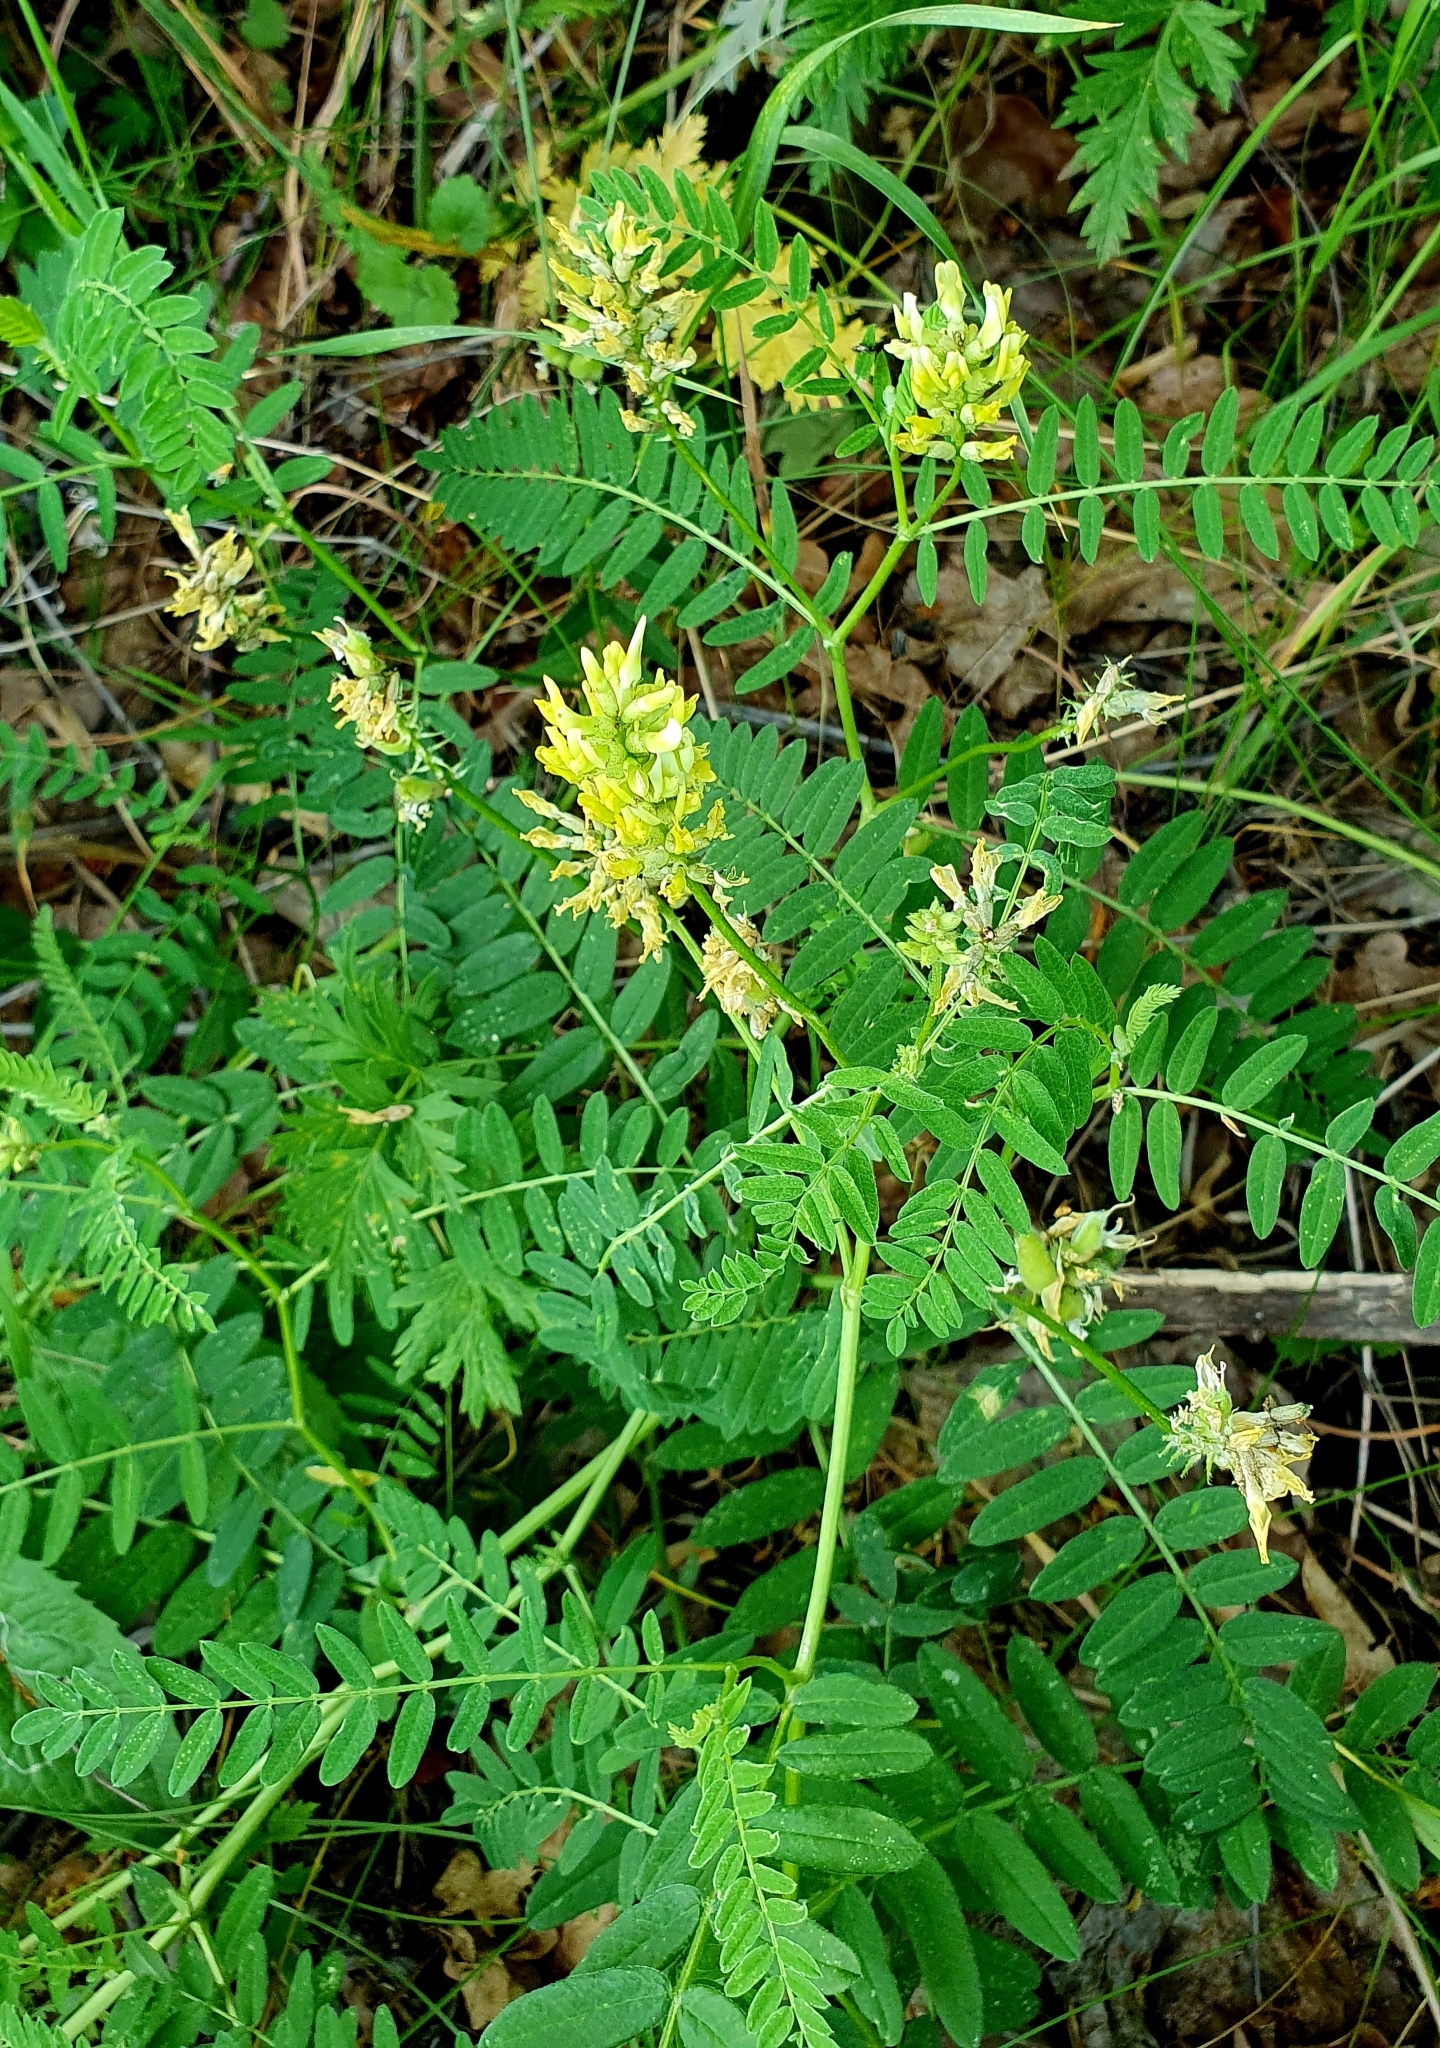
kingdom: Plantae
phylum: Tracheophyta
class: Magnoliopsida
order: Fabales
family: Fabaceae
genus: Astragalus
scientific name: Astragalus cicer
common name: Chick-pea milk-vetch
